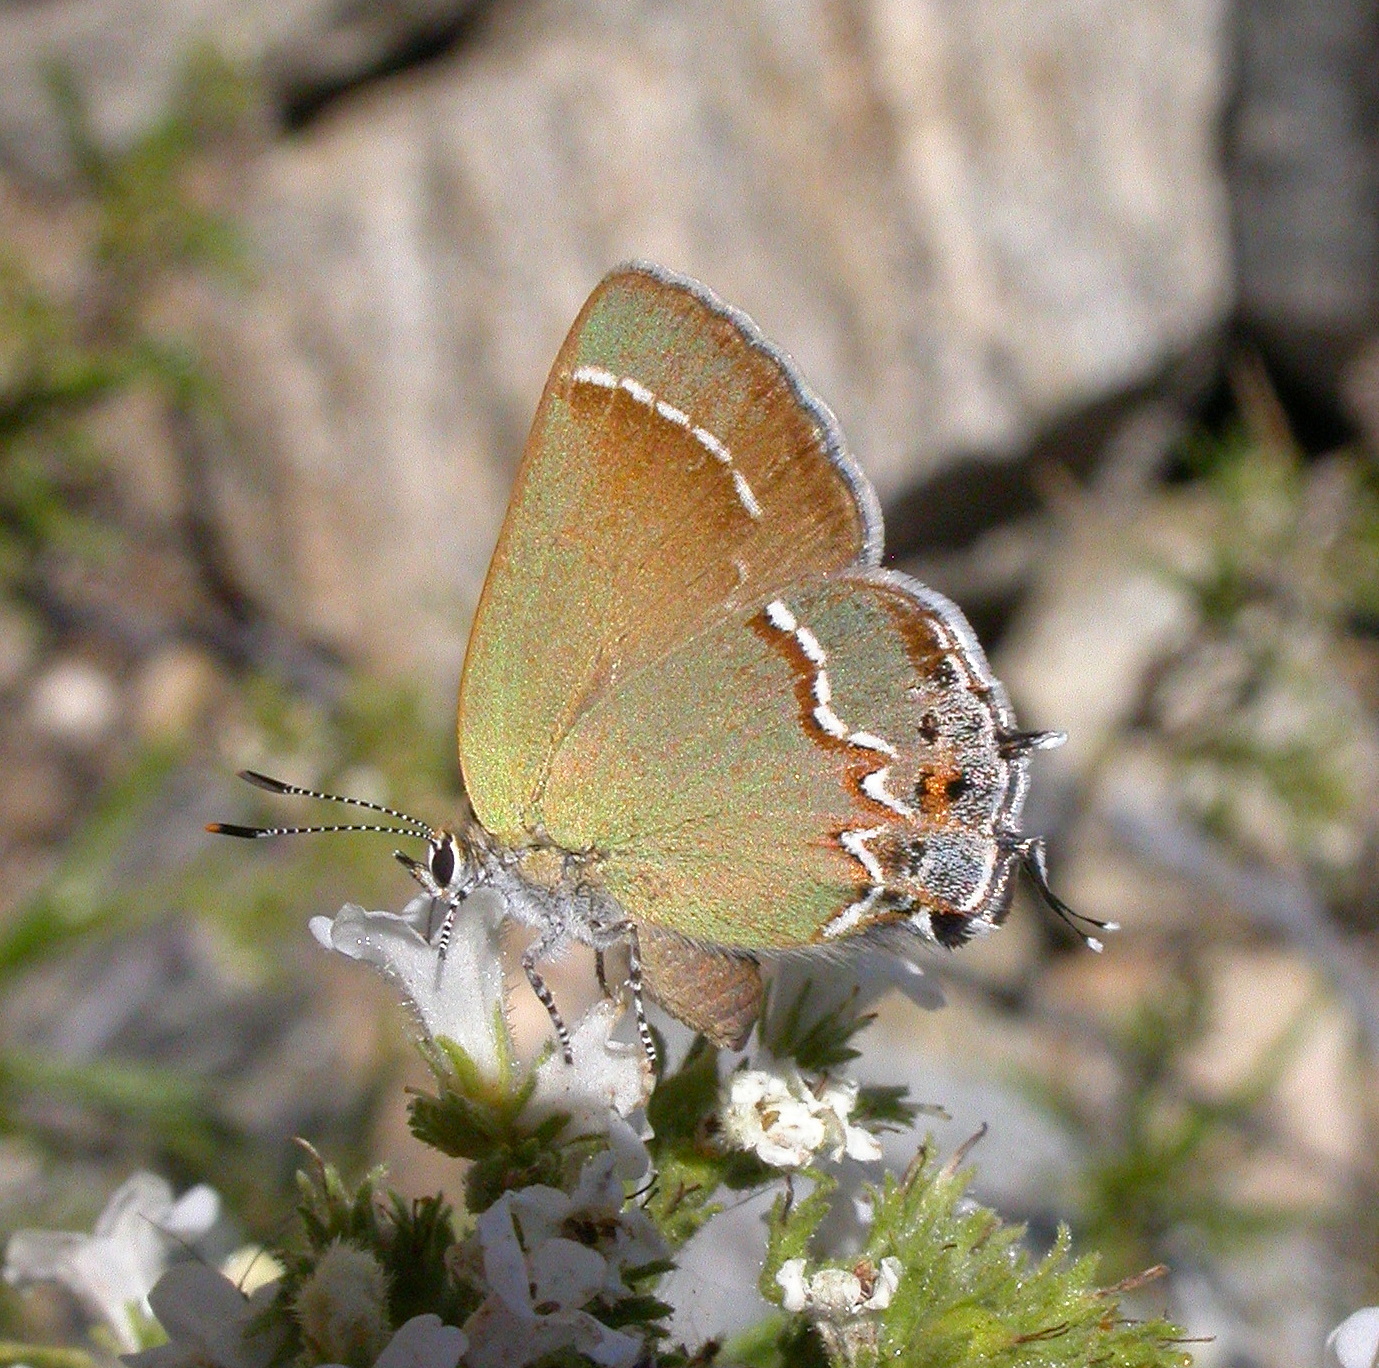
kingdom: Animalia
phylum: Arthropoda
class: Insecta
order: Lepidoptera
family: Lycaenidae
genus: Mitoura
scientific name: Mitoura siva
